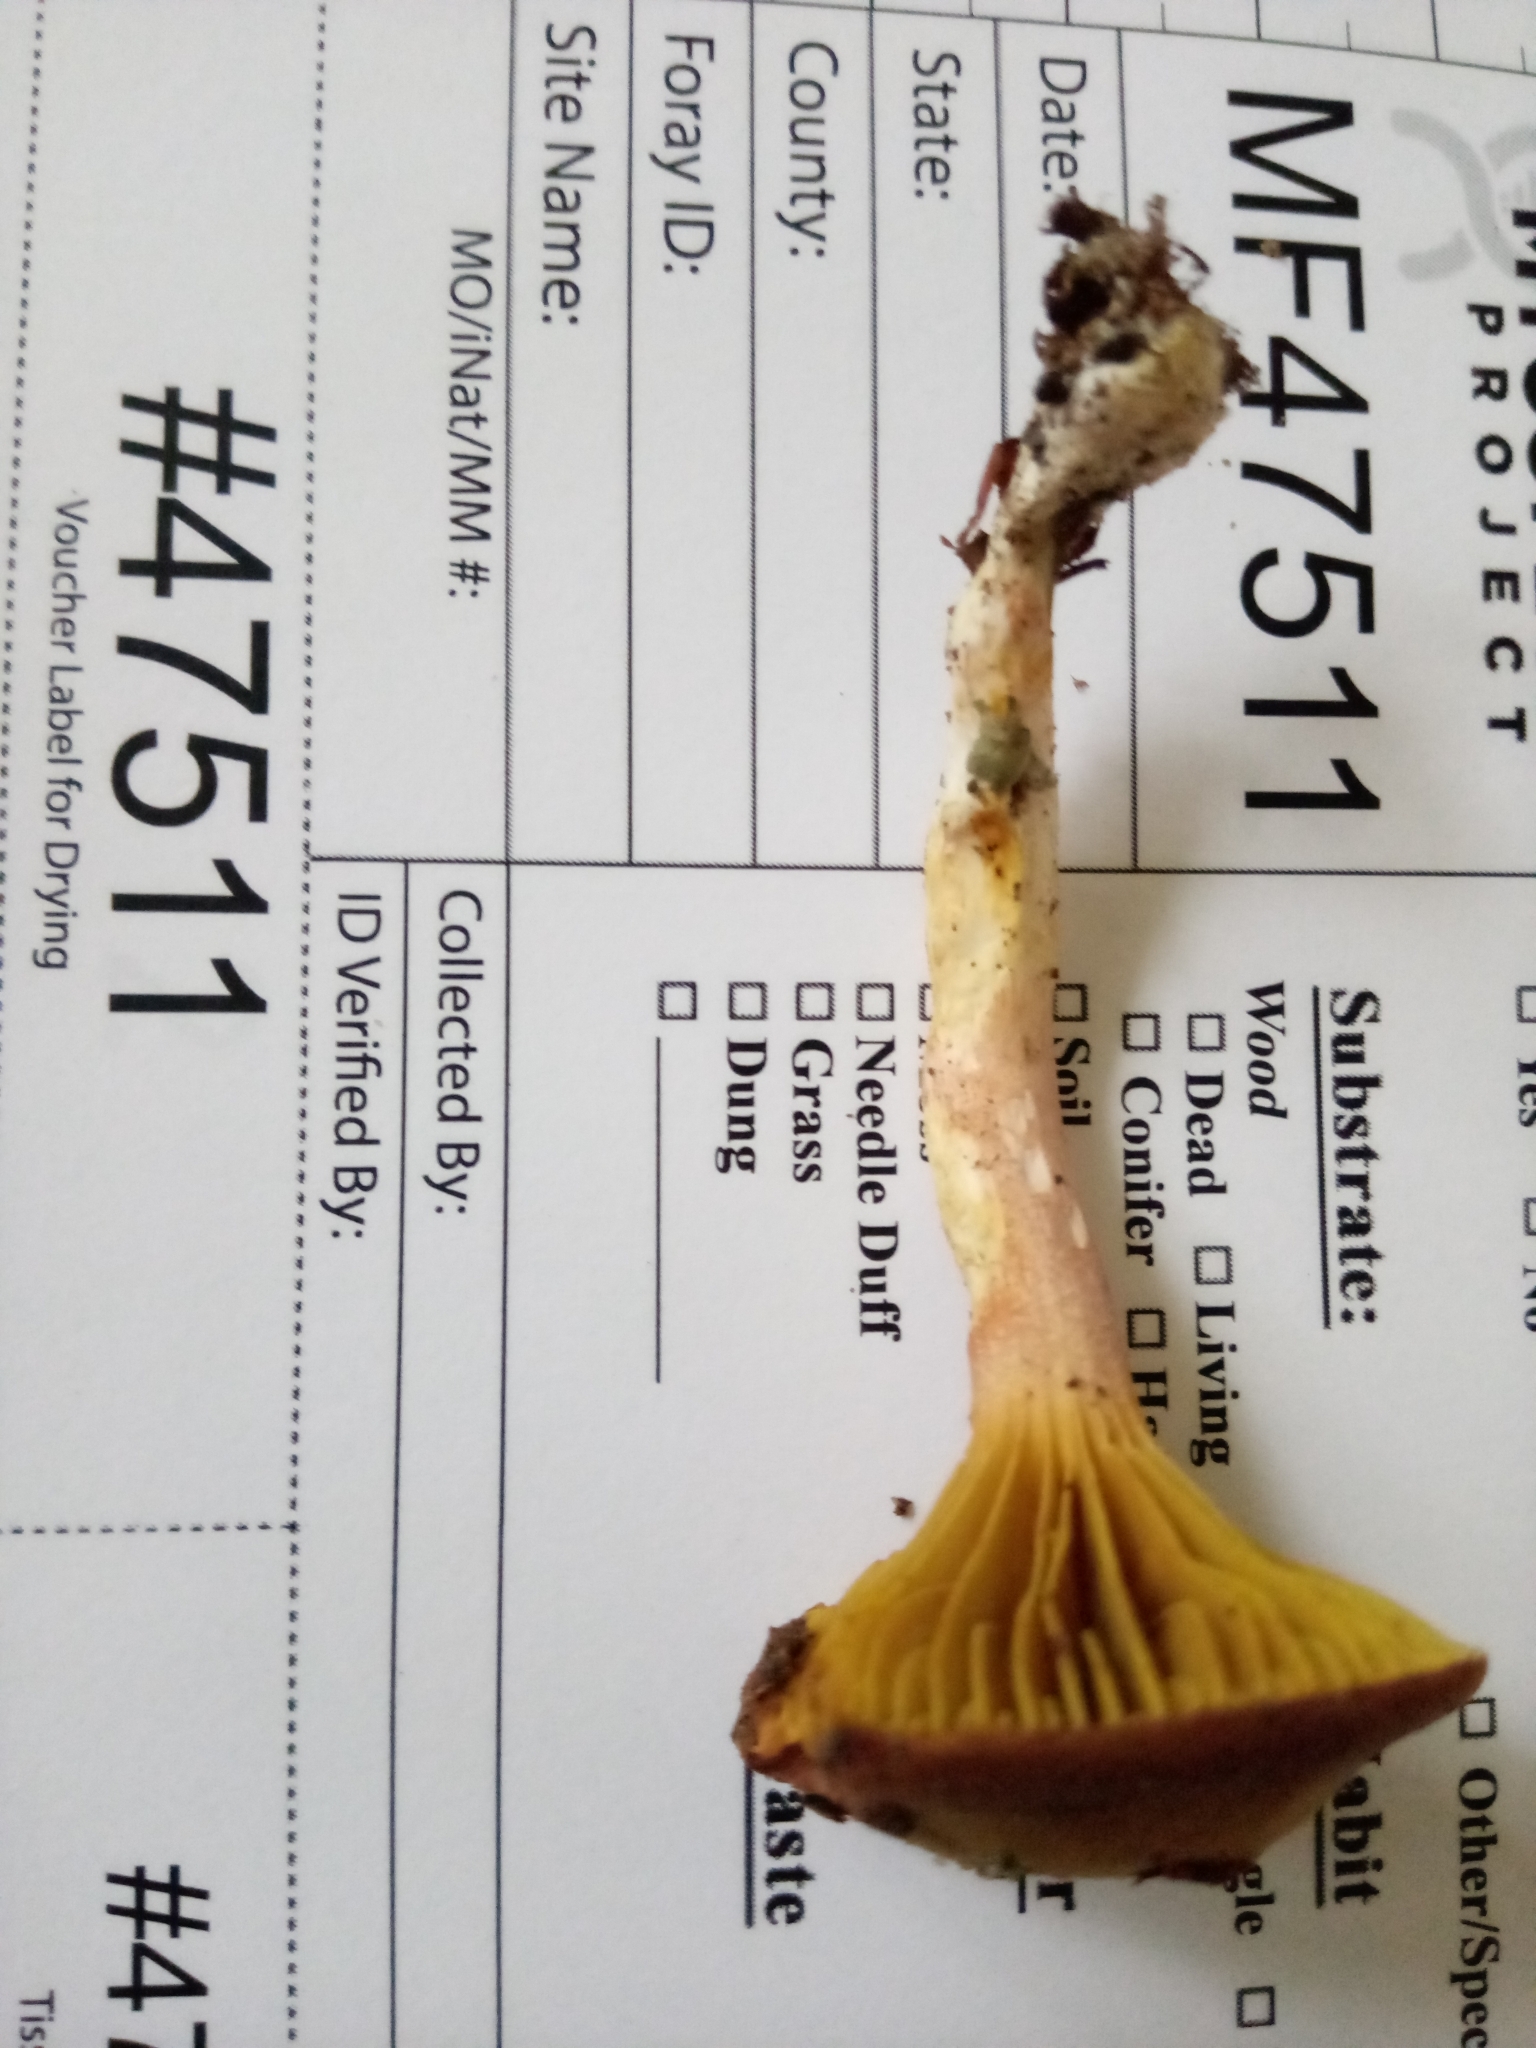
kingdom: Fungi
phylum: Basidiomycota
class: Agaricomycetes
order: Boletales
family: Boletaceae
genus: Phylloporus
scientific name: Phylloporus bellus
